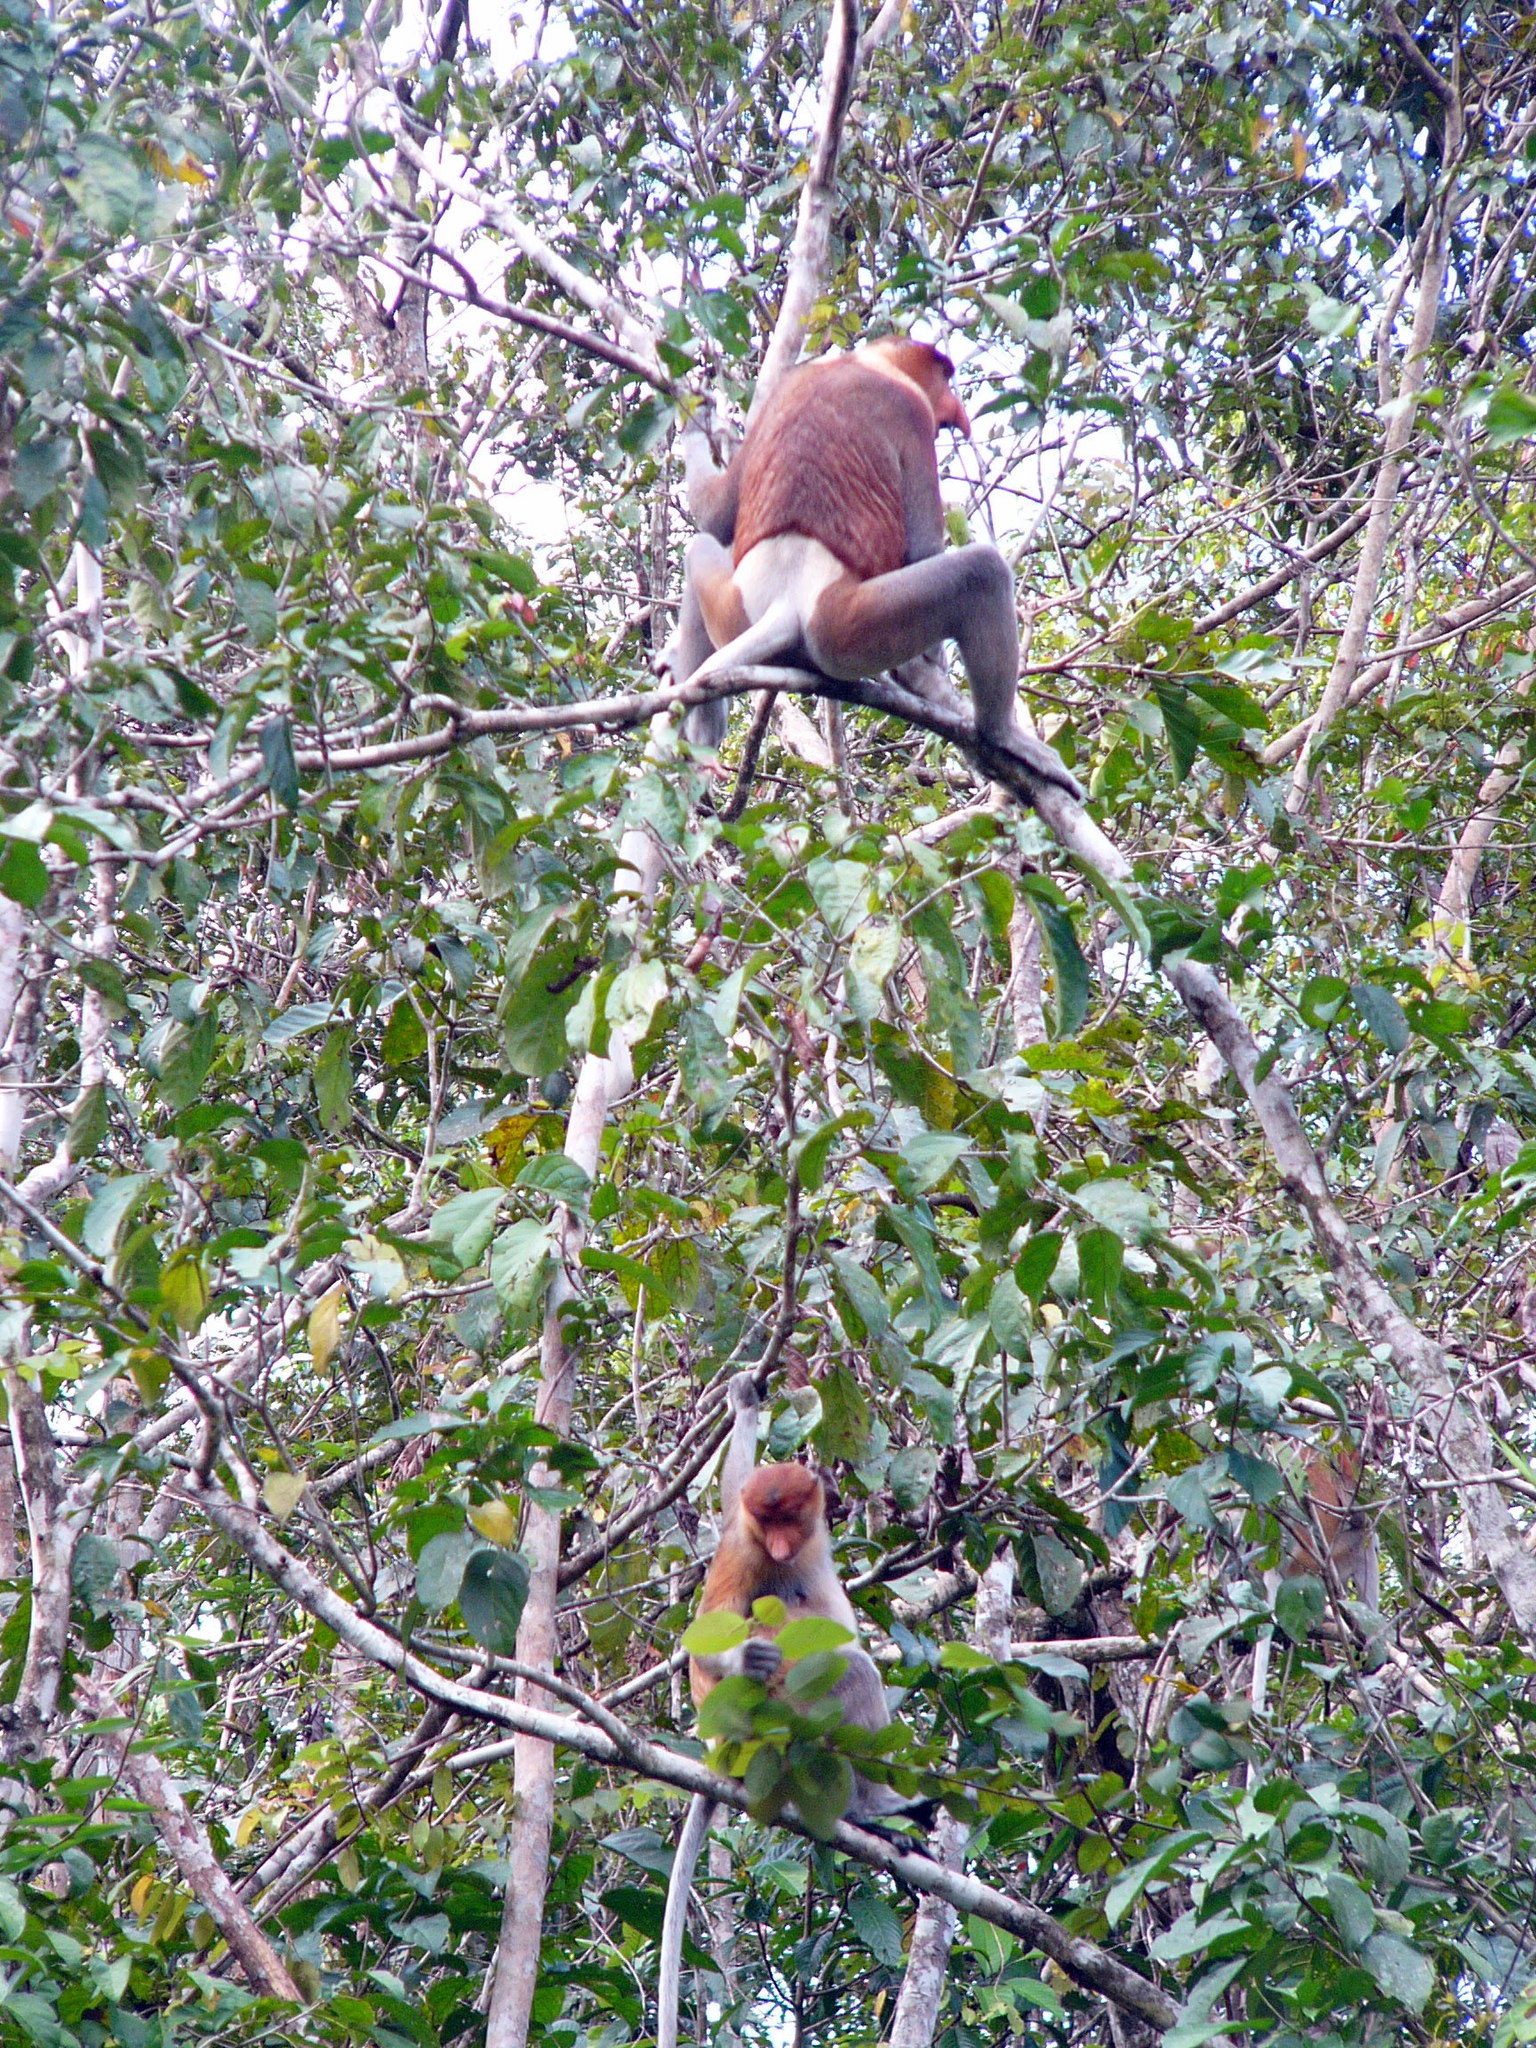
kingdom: Animalia
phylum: Chordata
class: Mammalia
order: Primates
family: Cercopithecidae
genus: Nasalis
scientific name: Nasalis larvatus
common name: Proboscis monkey
